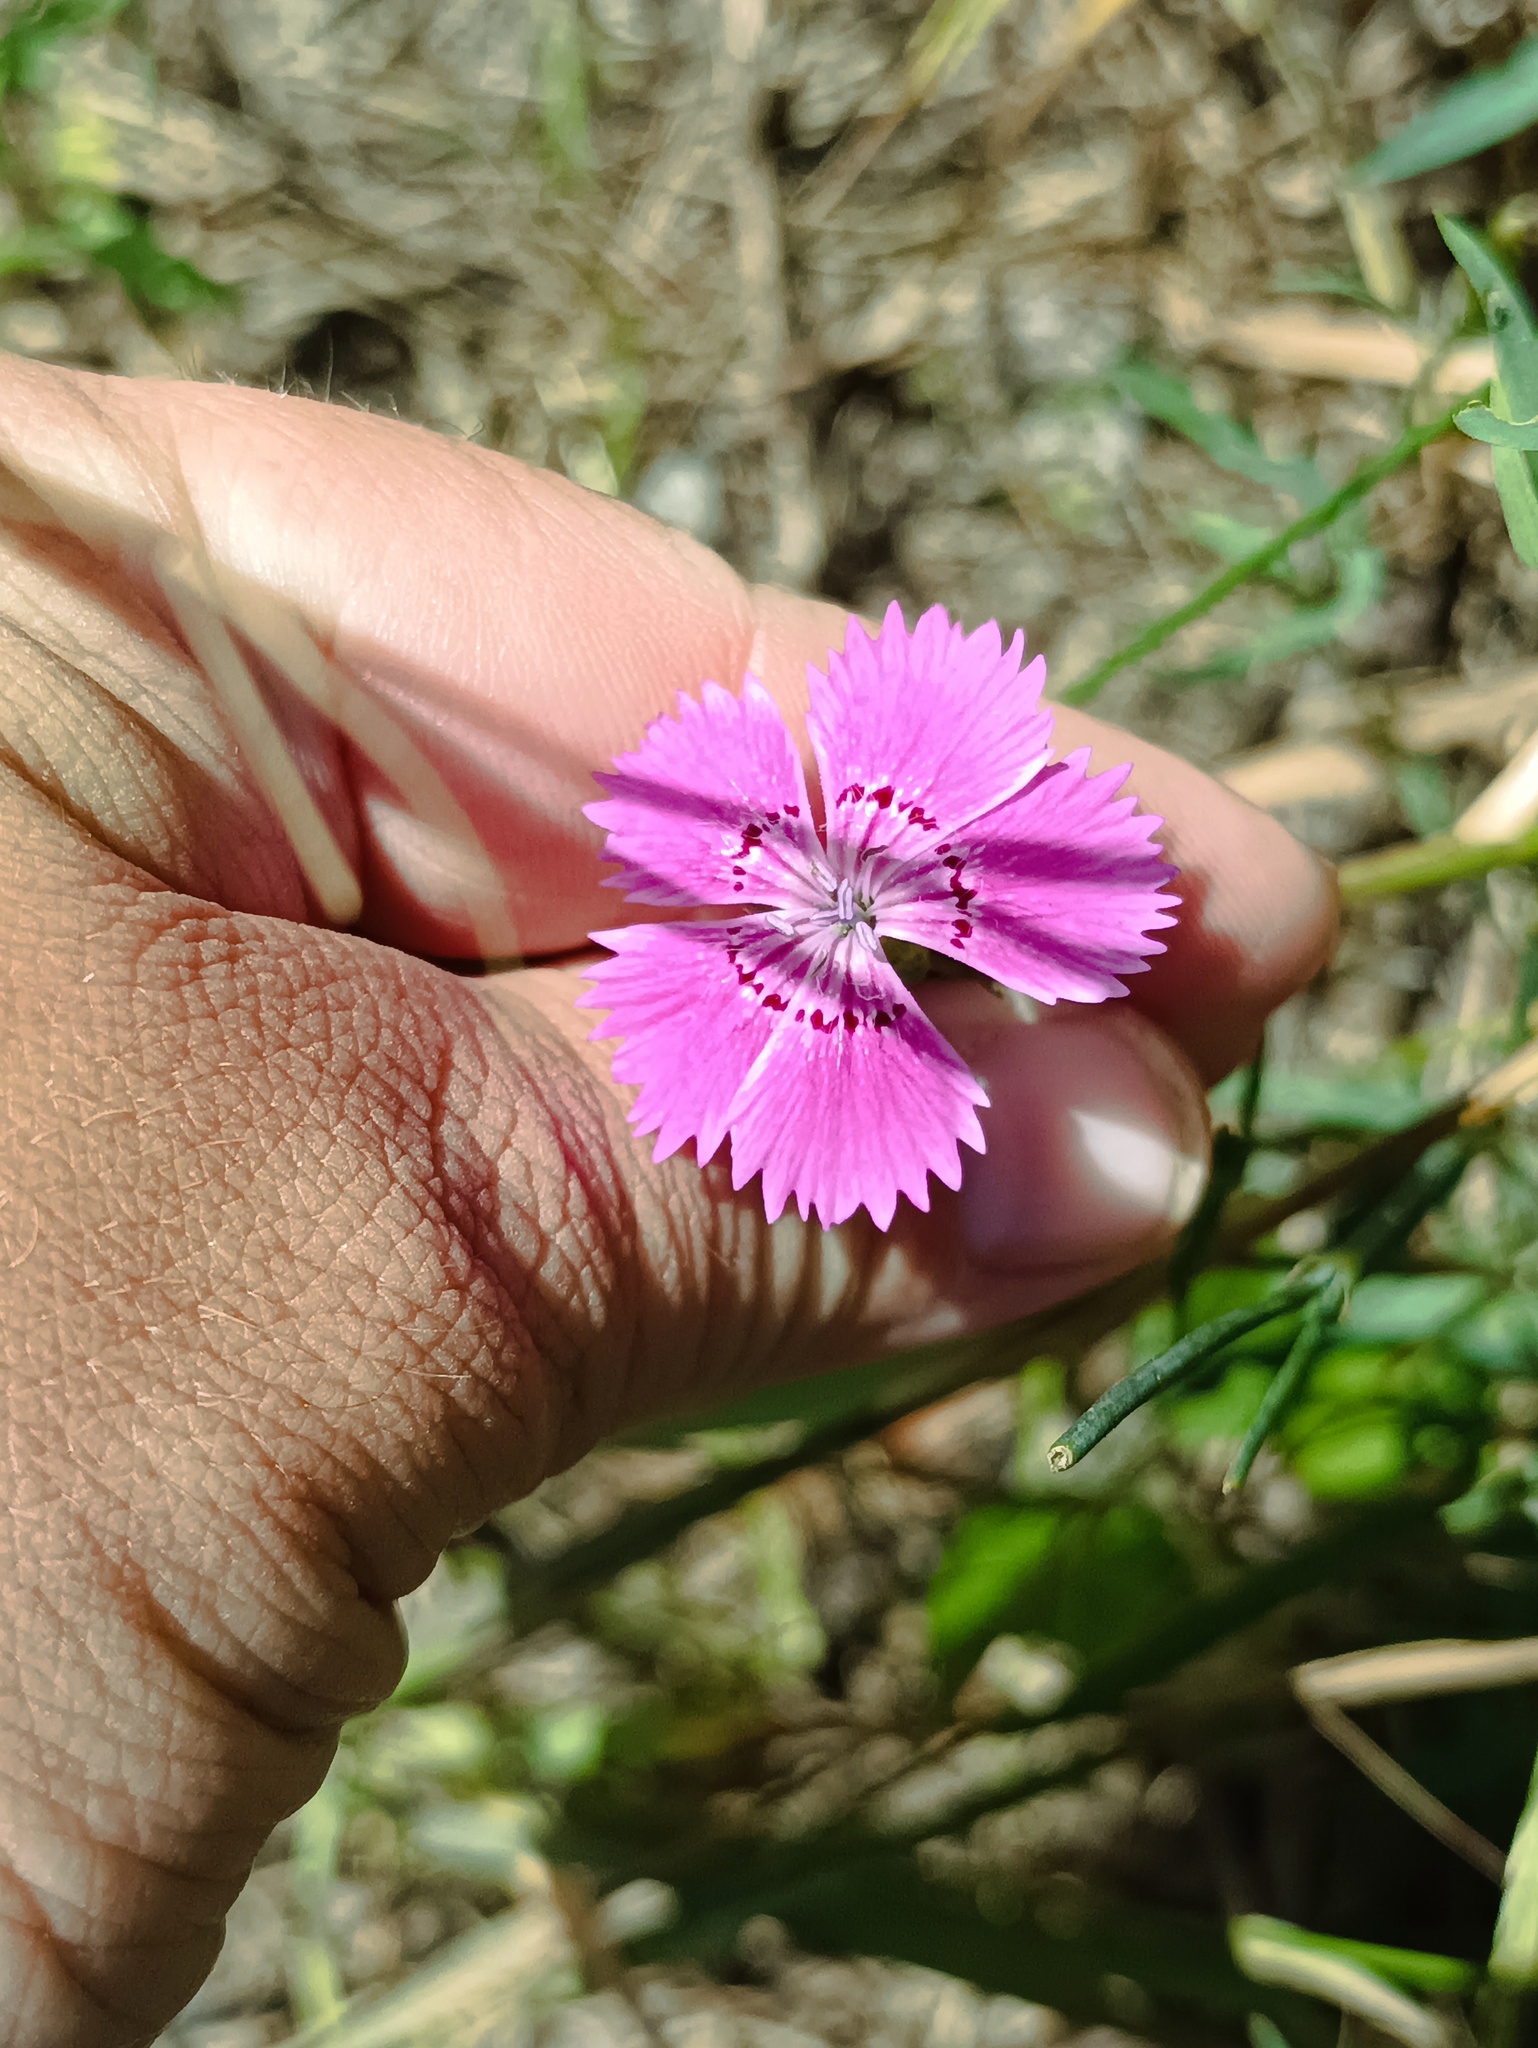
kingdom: Plantae
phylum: Tracheophyta
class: Magnoliopsida
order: Caryophyllales
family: Caryophyllaceae
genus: Dianthus
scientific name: Dianthus chinensis
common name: Rainbow pink
